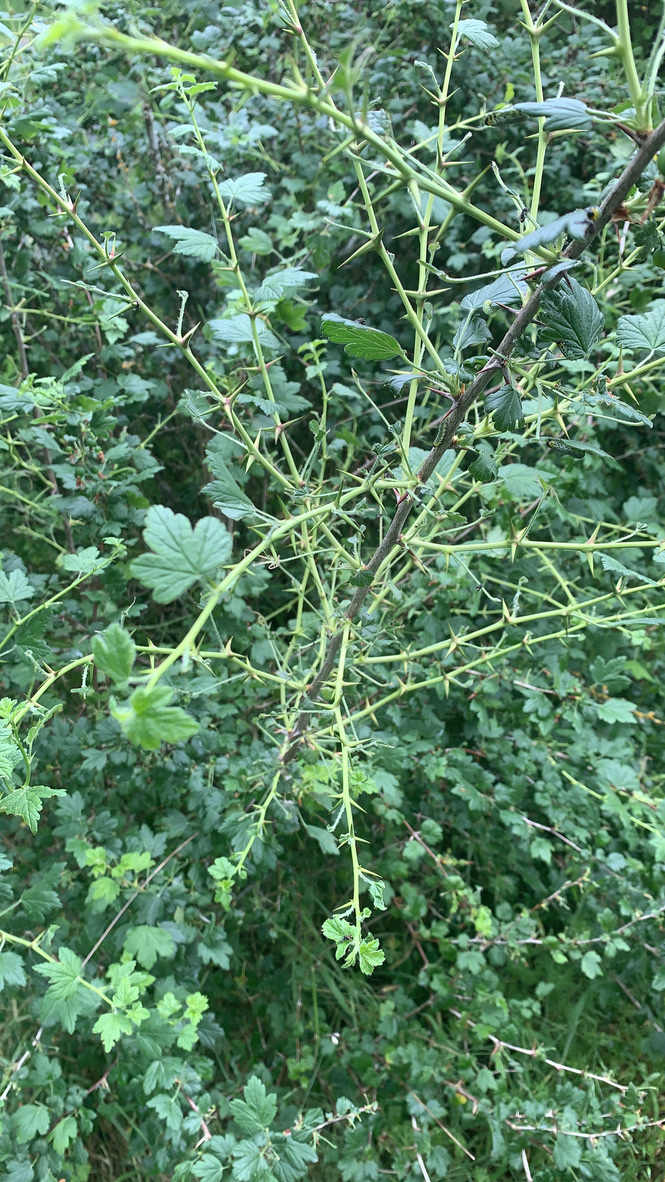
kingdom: Plantae
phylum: Tracheophyta
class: Magnoliopsida
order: Saxifragales
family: Grossulariaceae
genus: Ribes
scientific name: Ribes divaricatum
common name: Wild black gooseberry
